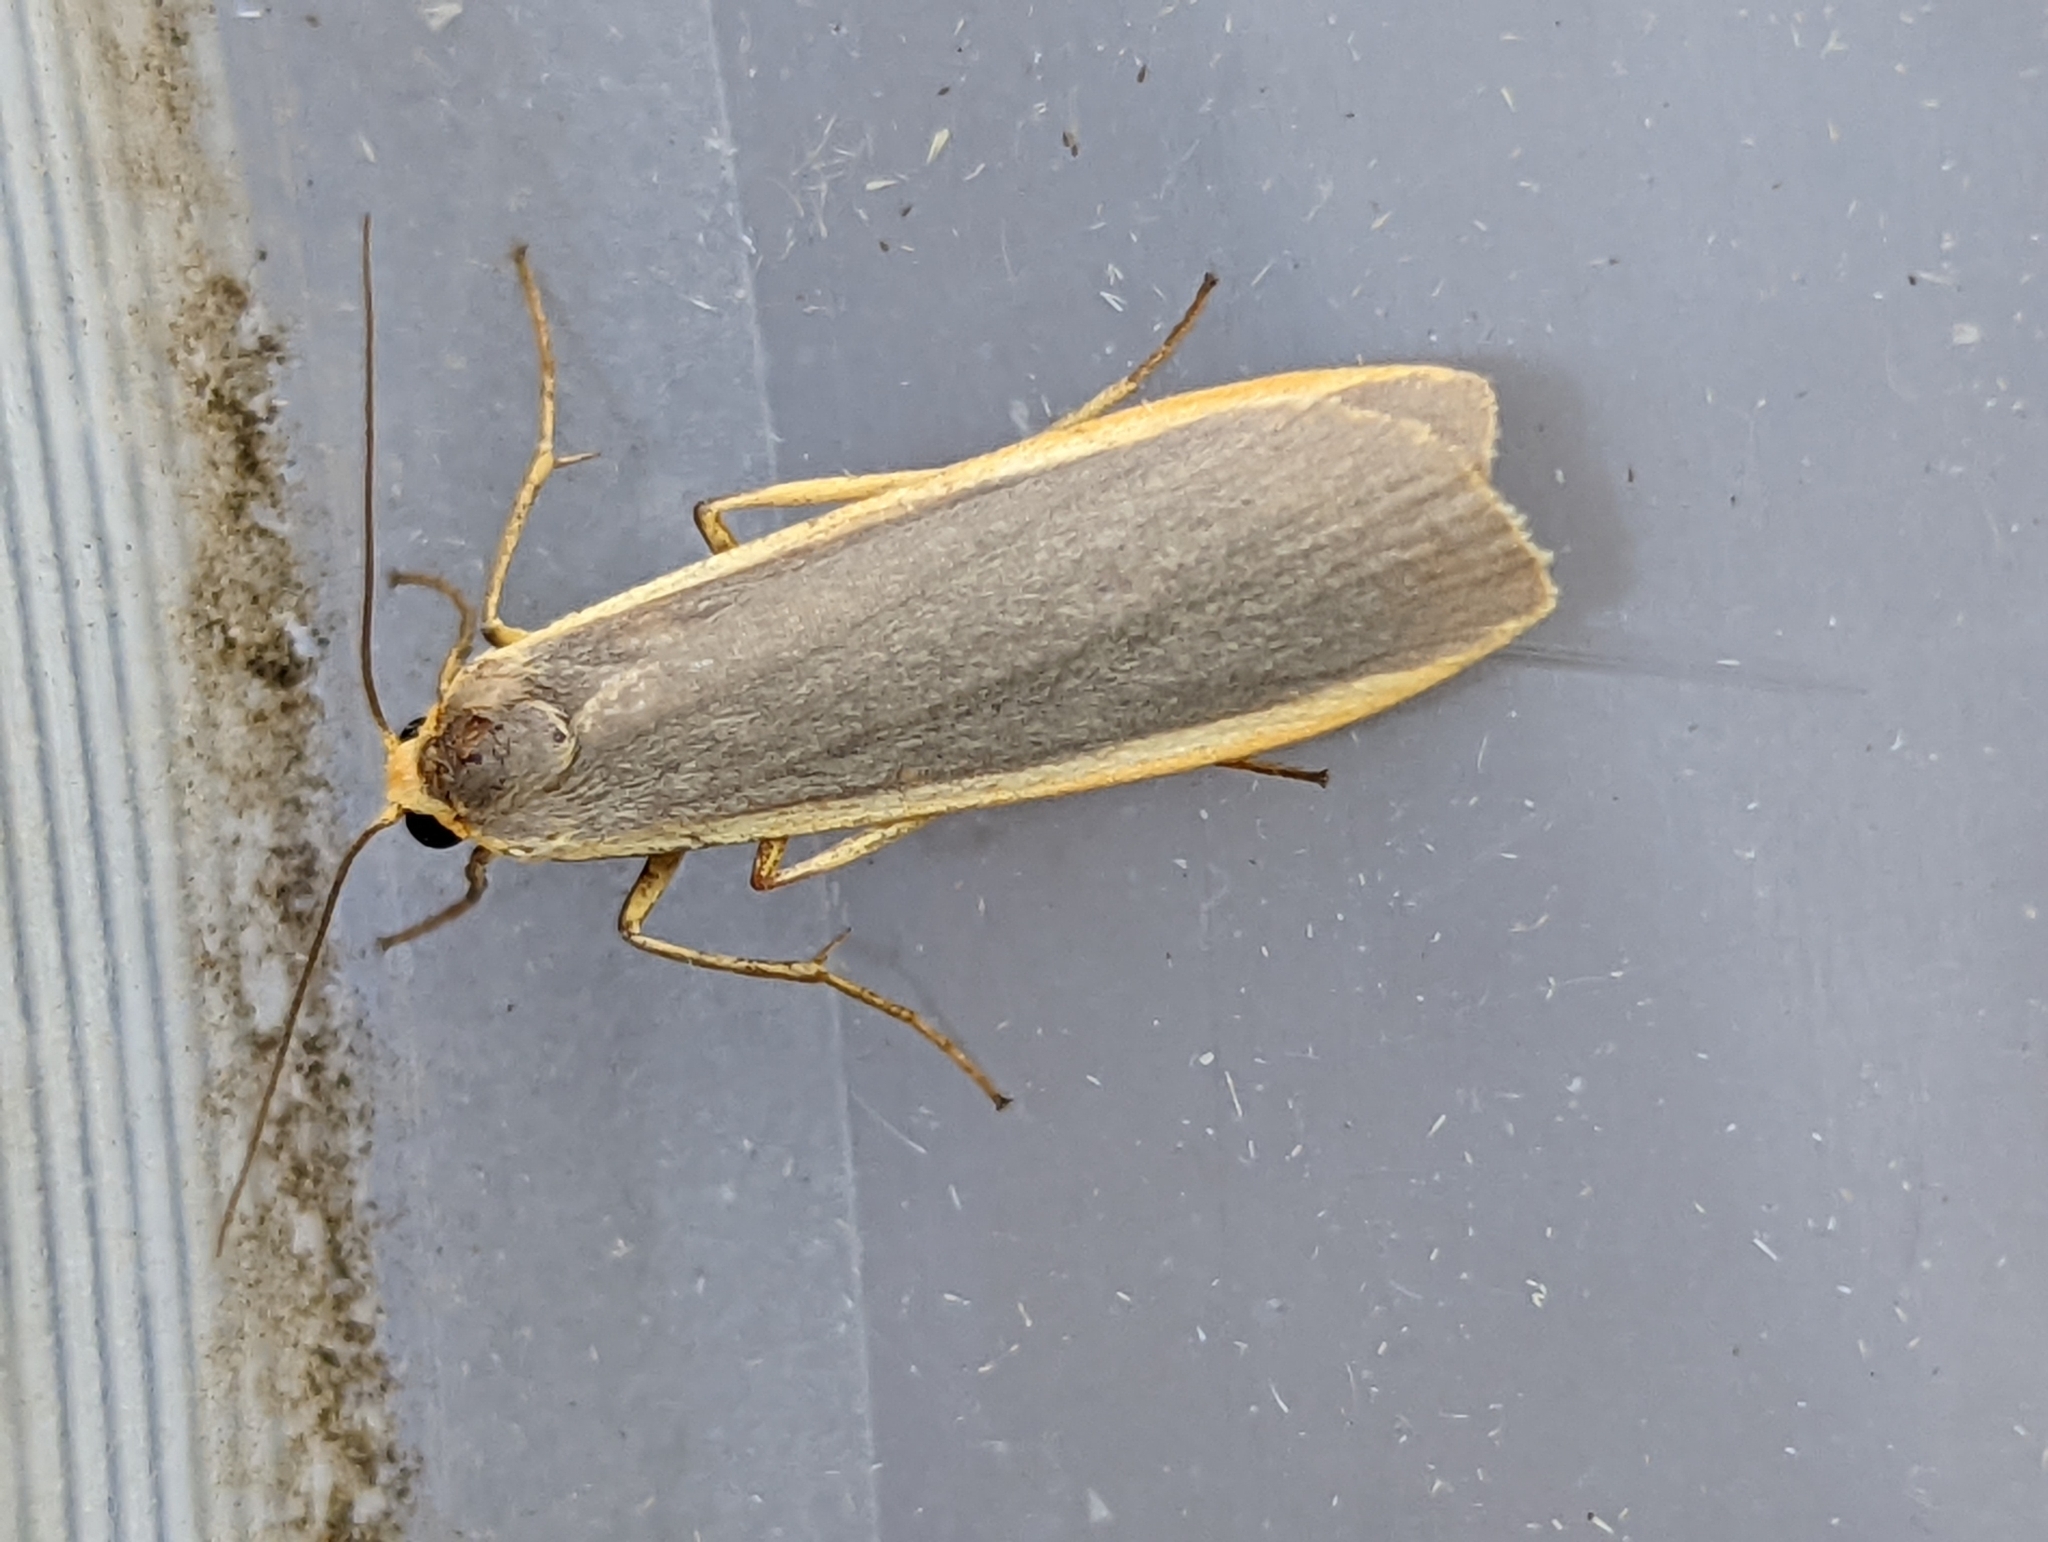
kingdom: Animalia
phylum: Arthropoda
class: Insecta
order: Lepidoptera
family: Erebidae
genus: Nyea
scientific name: Nyea lurideola
